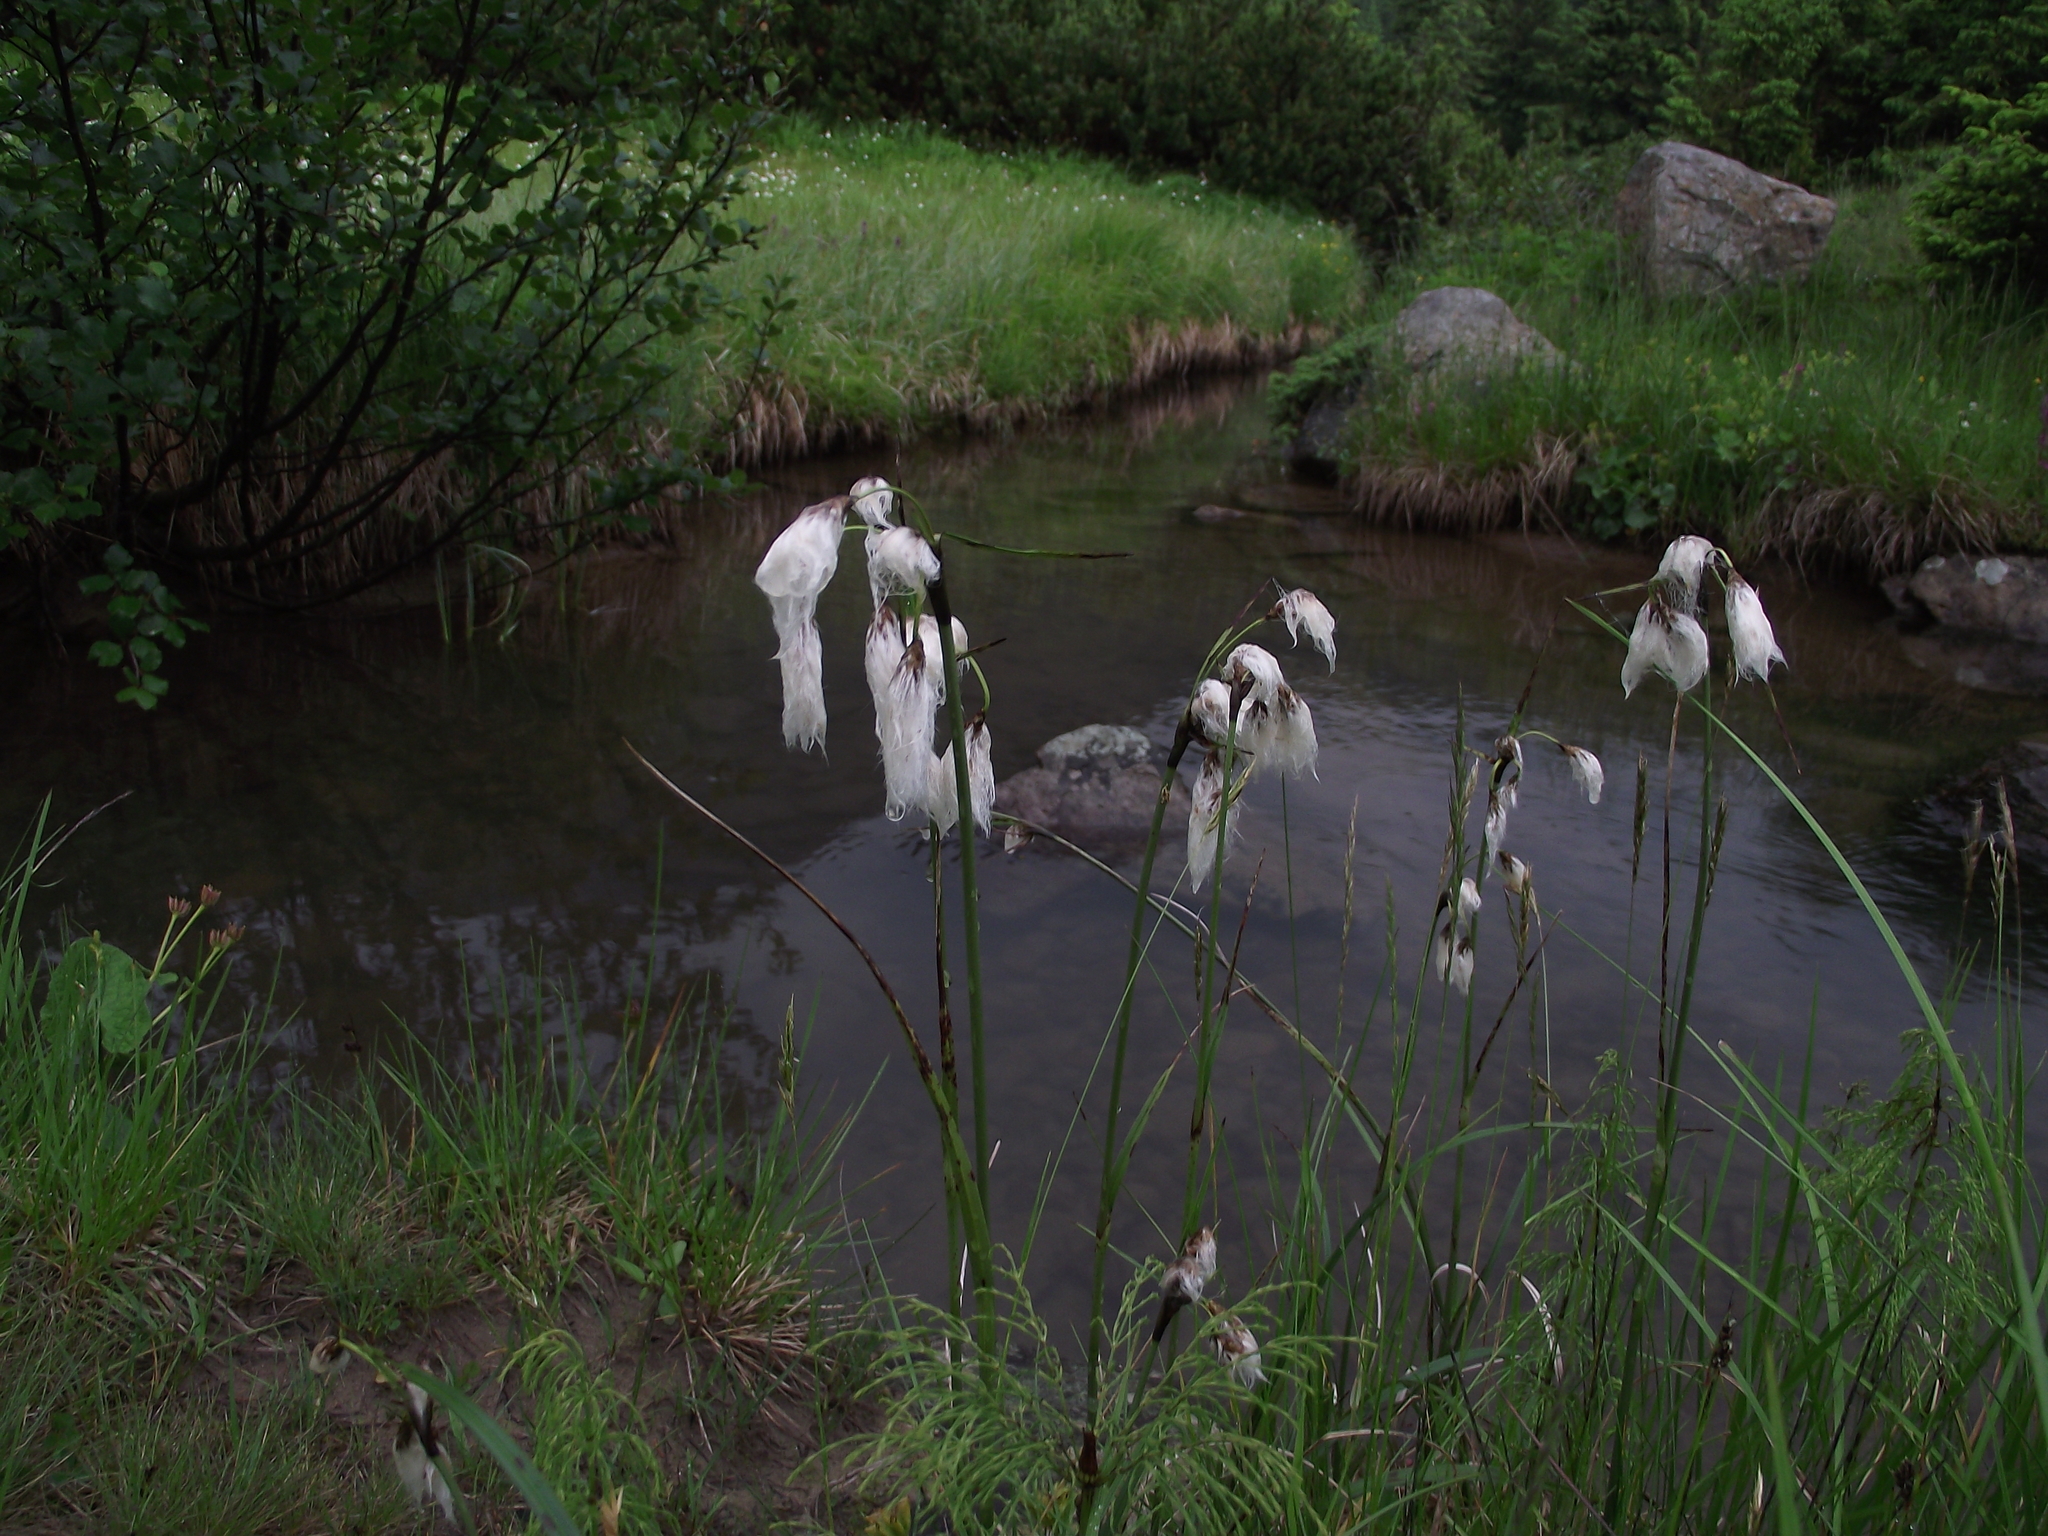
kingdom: Plantae
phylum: Tracheophyta
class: Liliopsida
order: Poales
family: Cyperaceae
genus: Eriophorum
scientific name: Eriophorum latifolium
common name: Broad-leaved cottongrass
